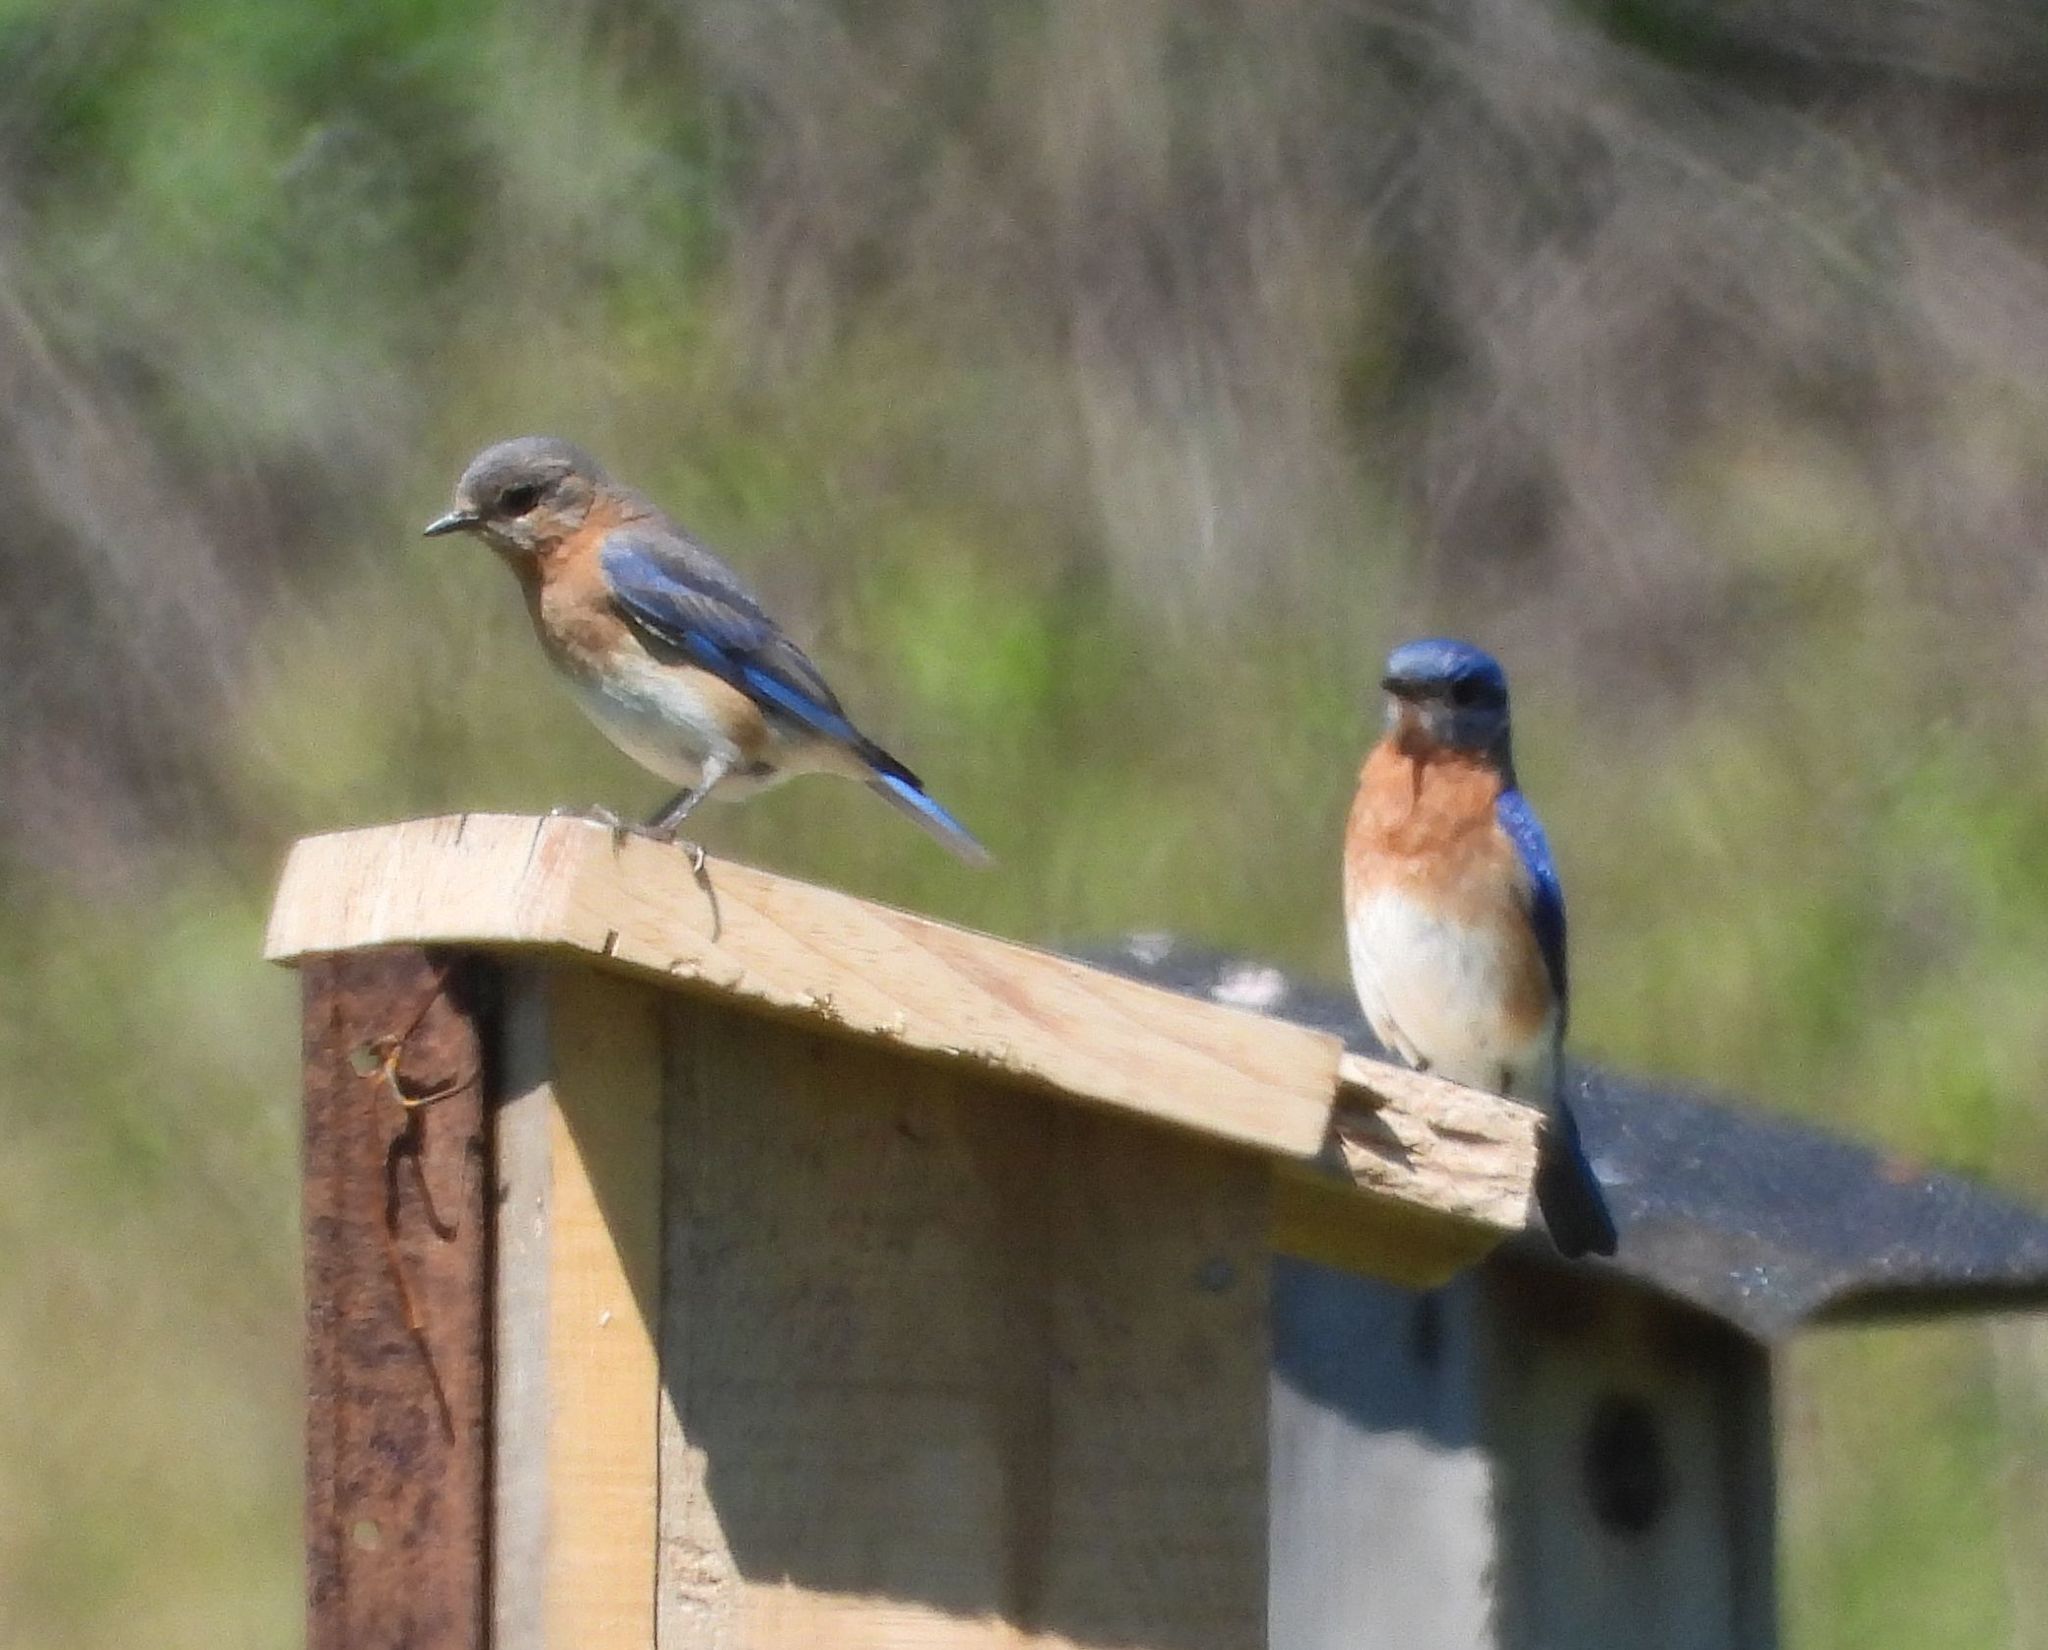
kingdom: Animalia
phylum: Chordata
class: Aves
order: Passeriformes
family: Turdidae
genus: Sialia
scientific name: Sialia sialis
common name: Eastern bluebird
